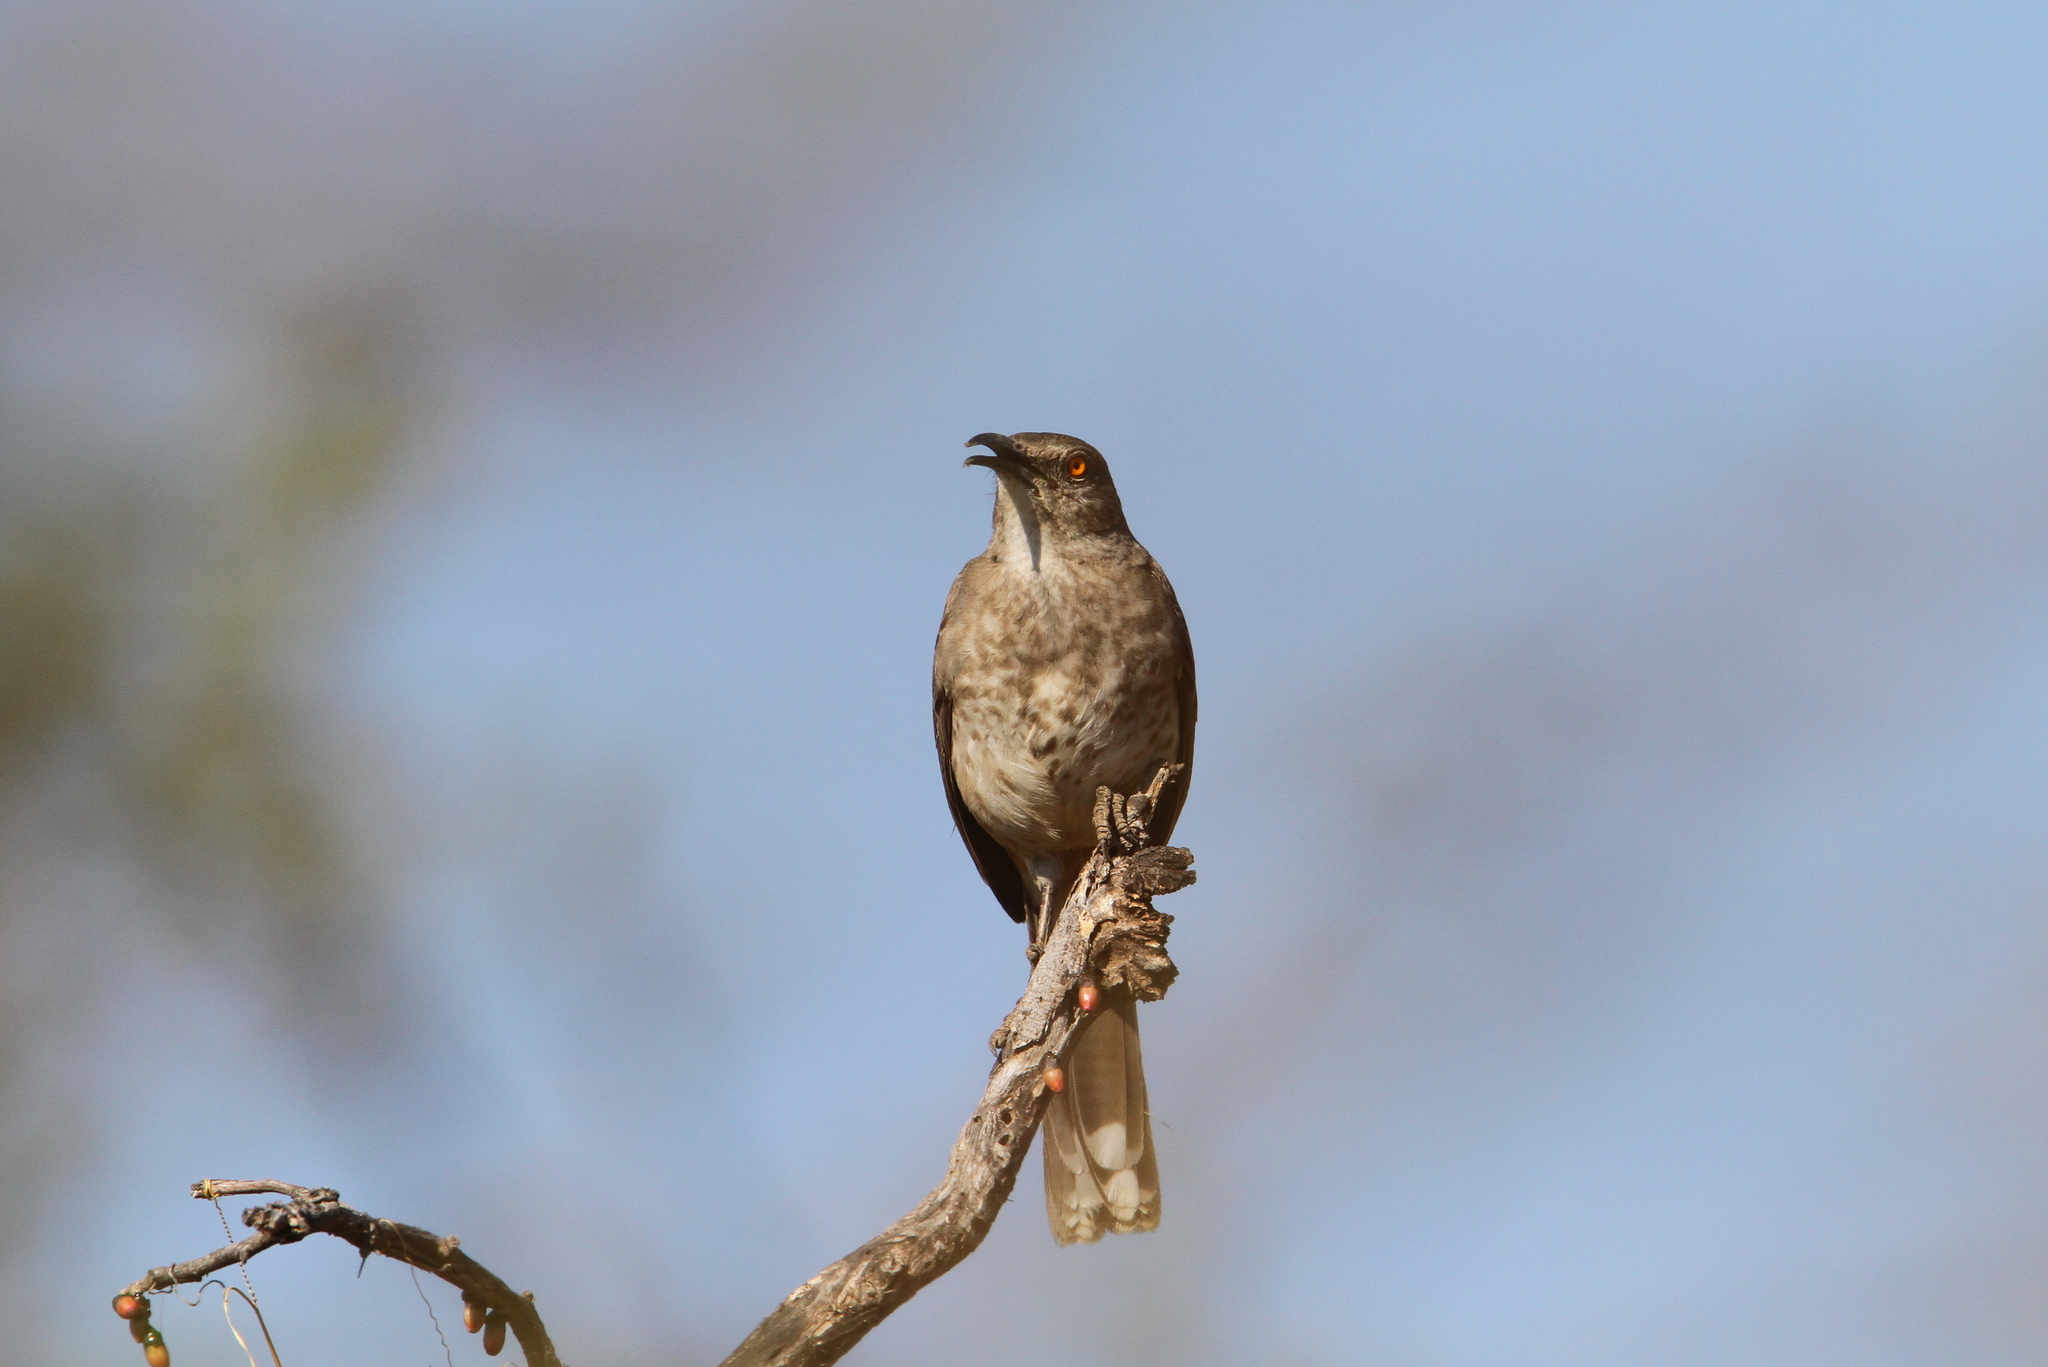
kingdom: Animalia
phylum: Chordata
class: Aves
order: Passeriformes
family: Mimidae
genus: Toxostoma
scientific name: Toxostoma curvirostre
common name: Curve-billed thrasher
